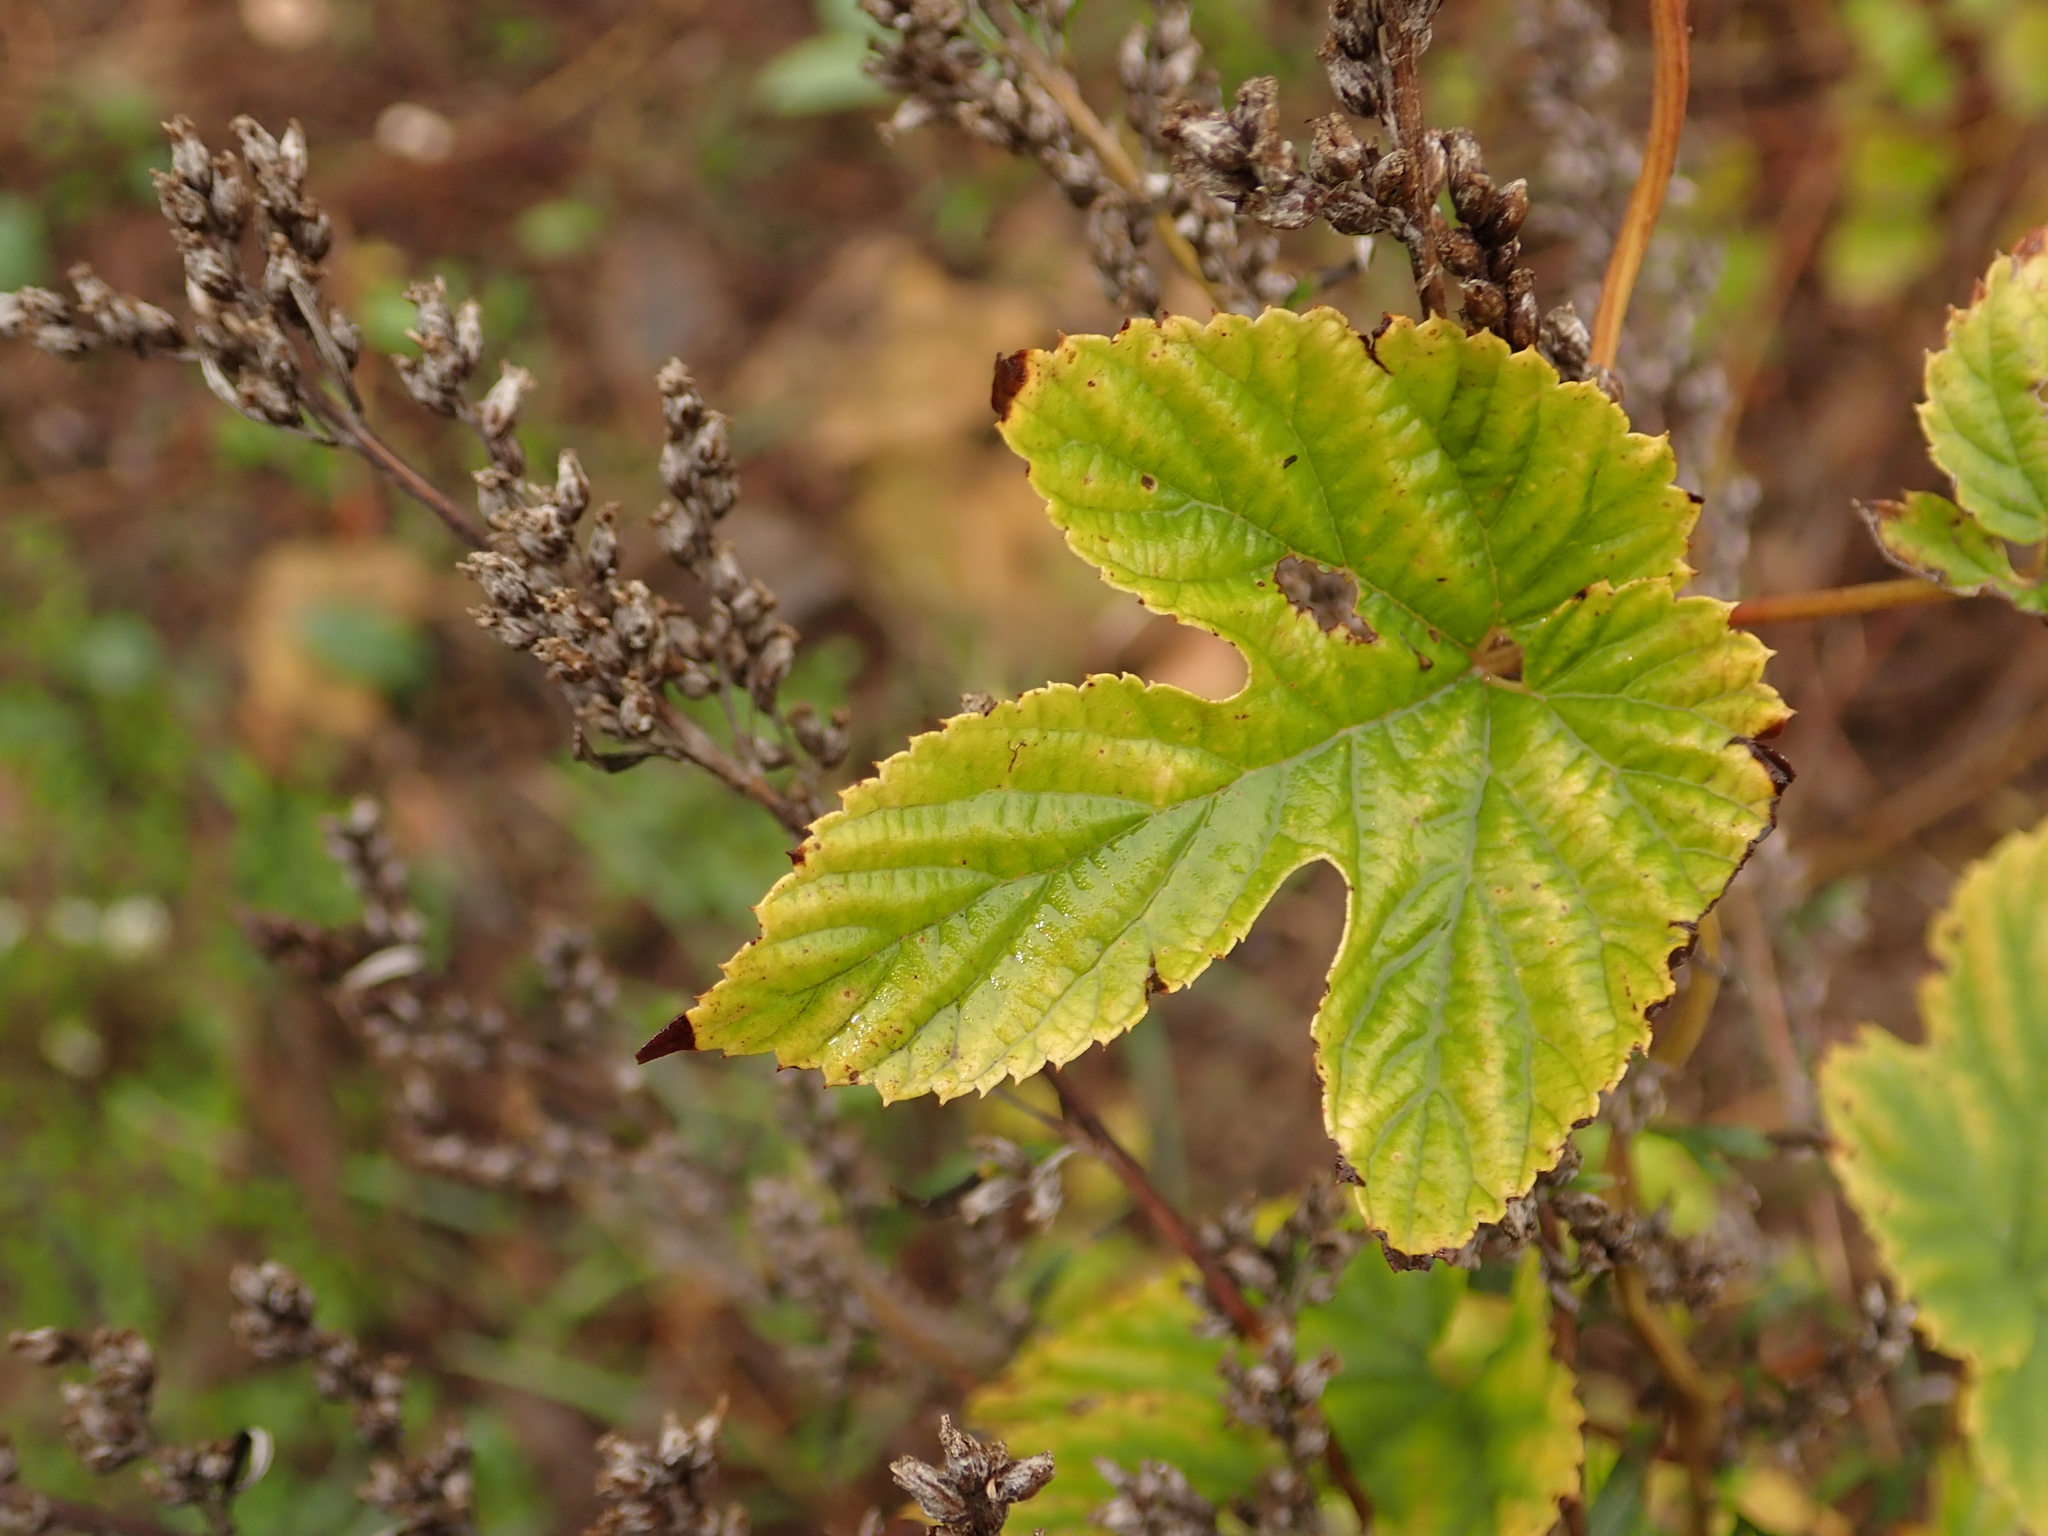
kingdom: Plantae
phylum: Tracheophyta
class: Magnoliopsida
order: Rosales
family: Cannabaceae
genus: Humulus
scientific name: Humulus lupulus
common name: Hop
